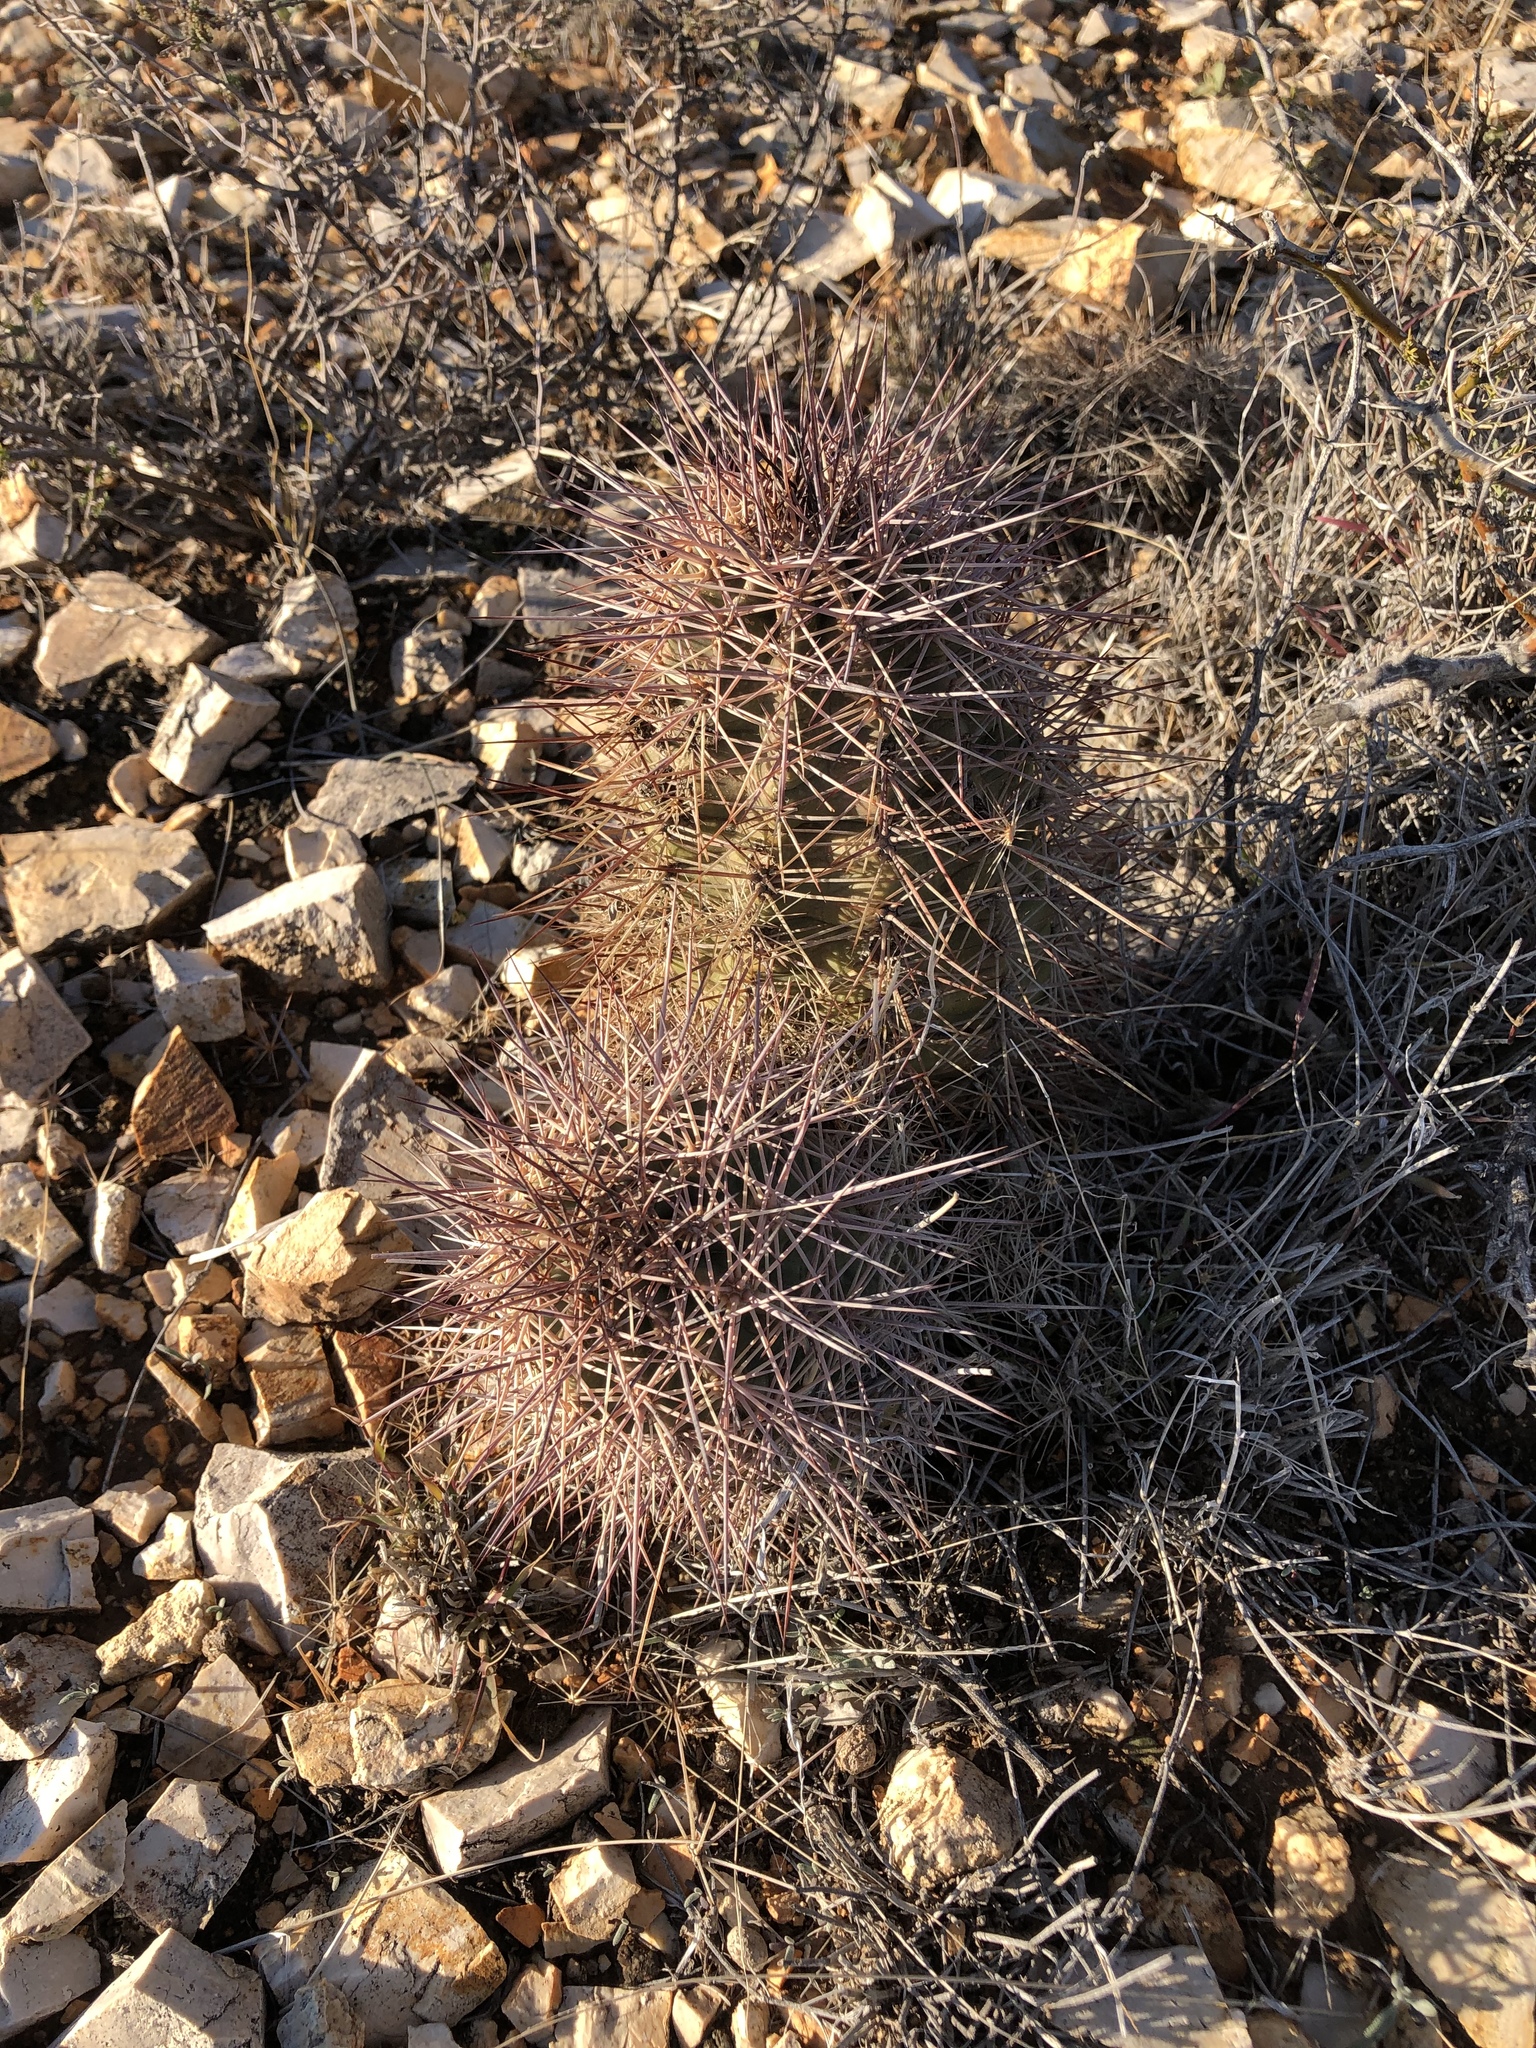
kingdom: Plantae
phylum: Tracheophyta
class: Magnoliopsida
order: Caryophyllales
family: Cactaceae
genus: Echinocereus
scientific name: Echinocereus coccineus
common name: Scarlet hedgehog cactus
